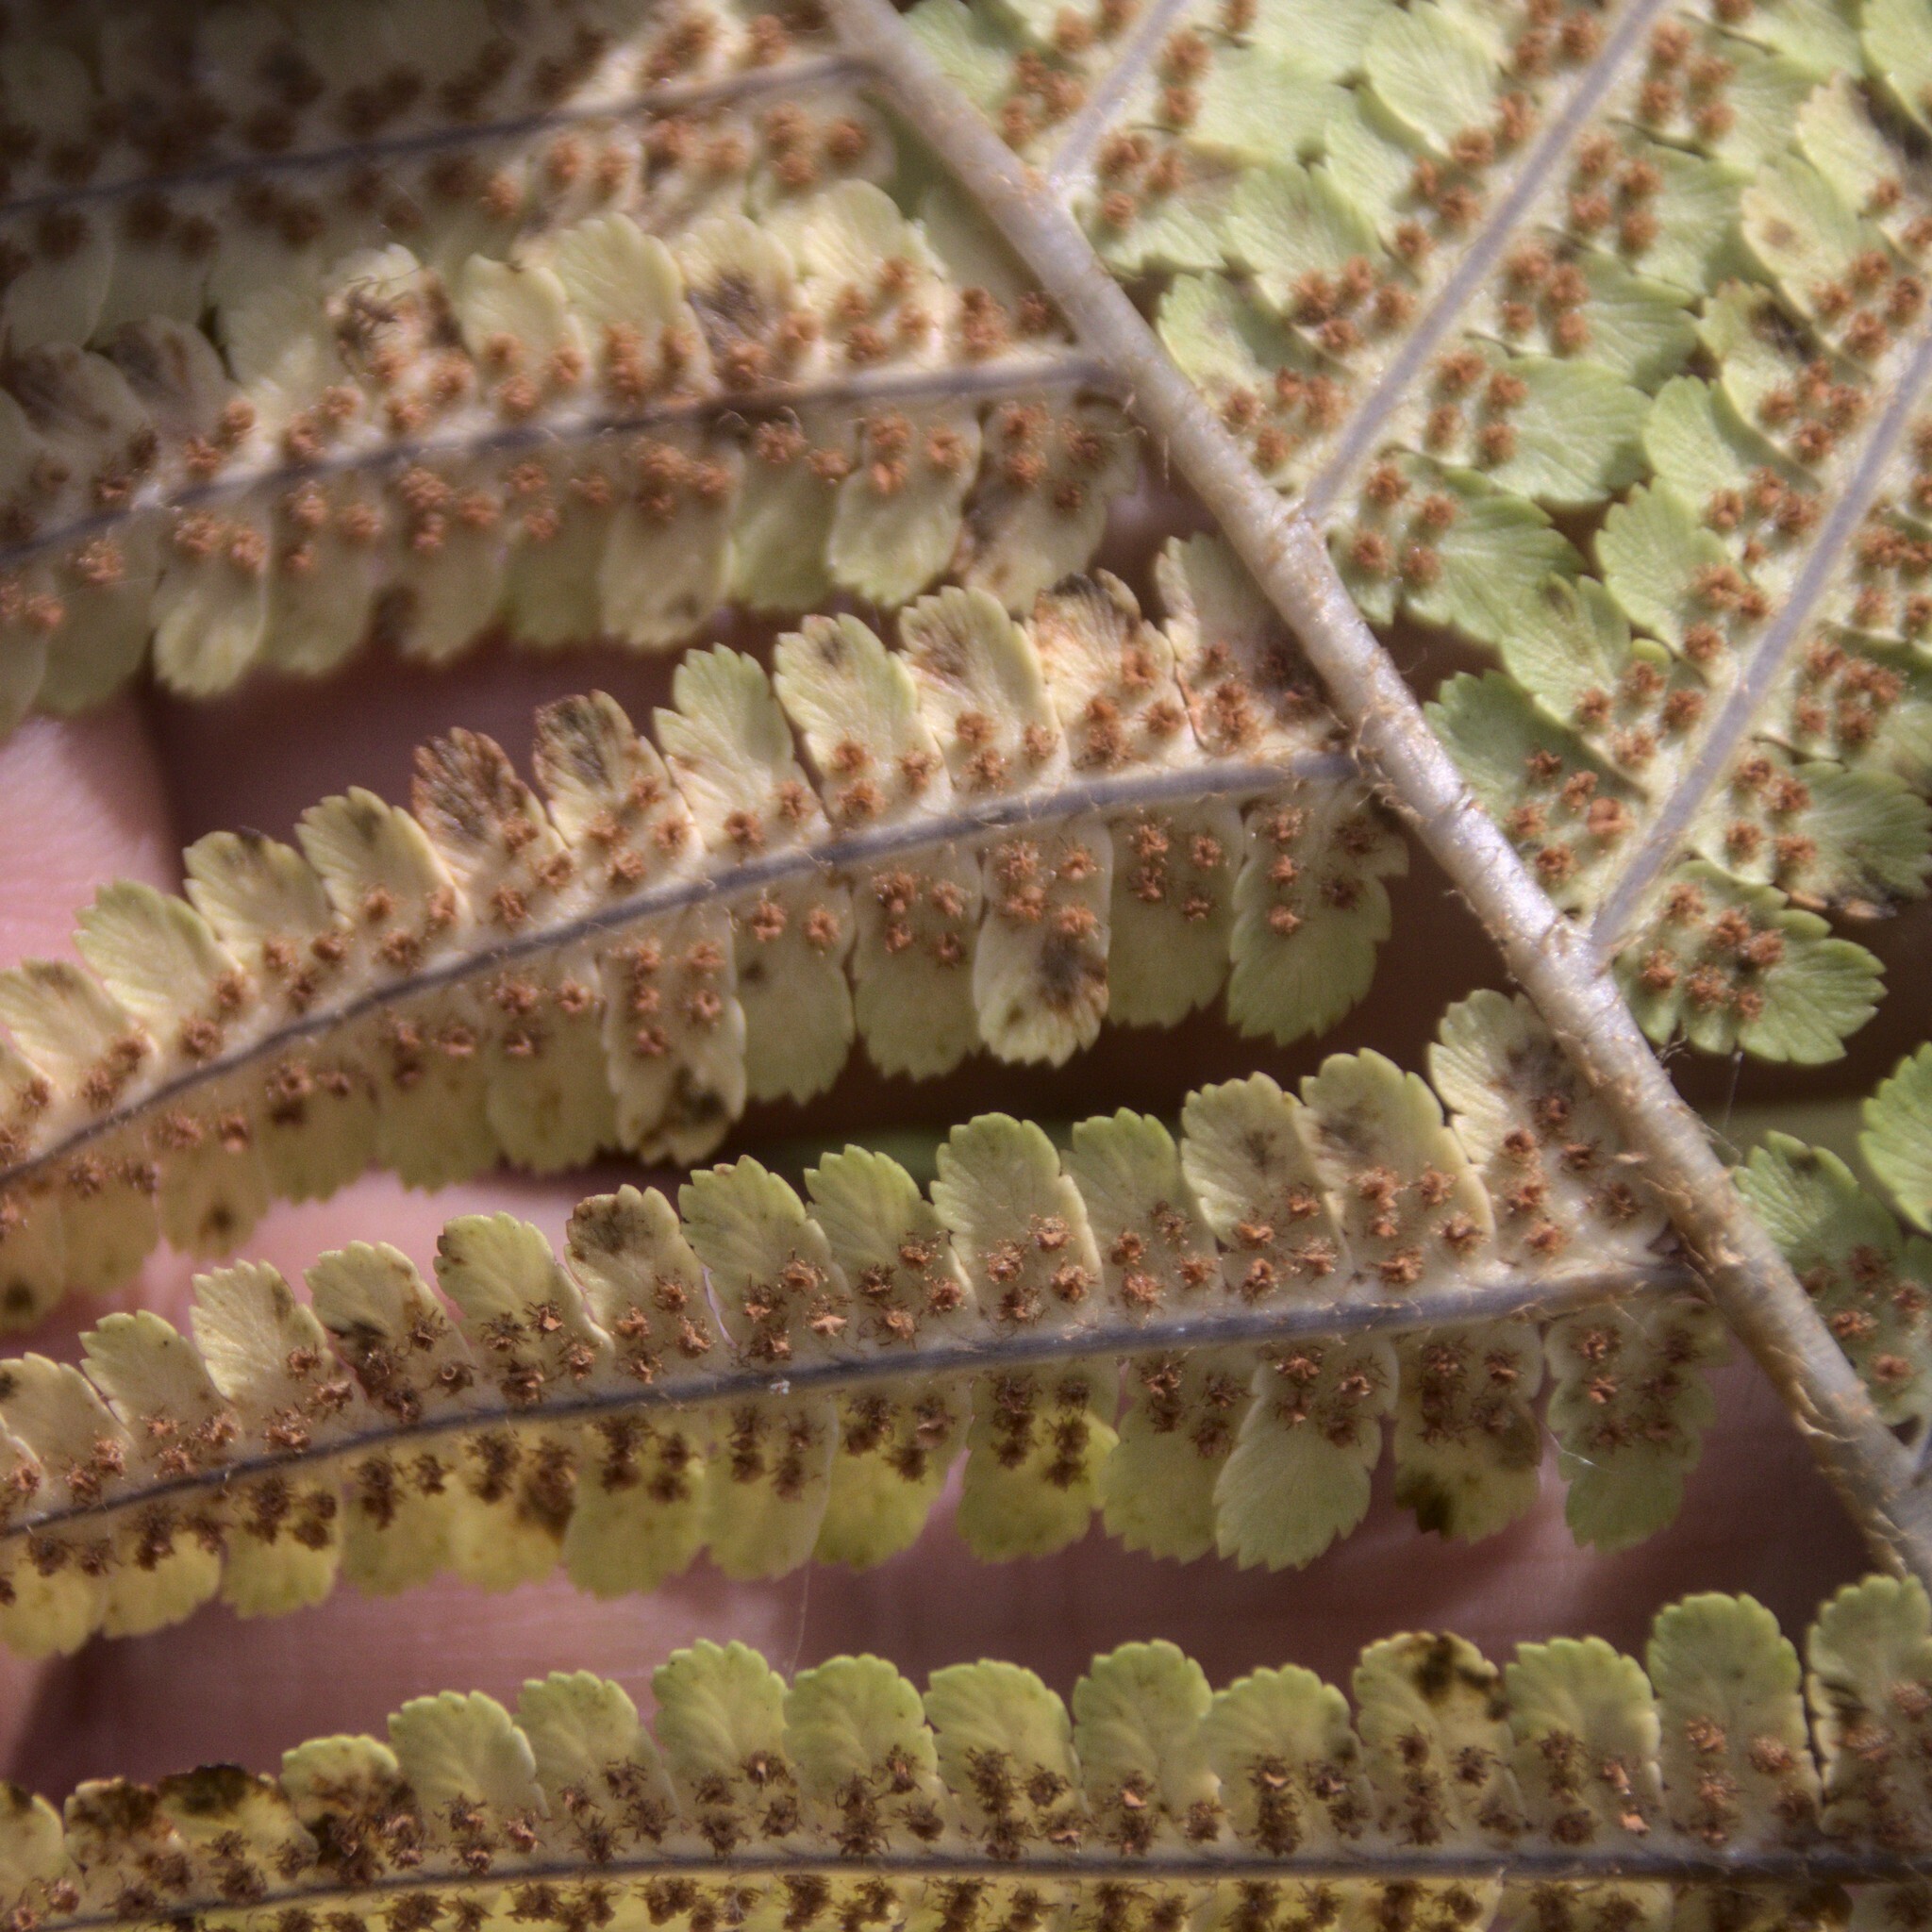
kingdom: Plantae
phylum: Tracheophyta
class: Polypodiopsida
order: Polypodiales
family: Dryopteridaceae
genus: Dryopteris
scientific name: Dryopteris filix-mas
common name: Male fern
